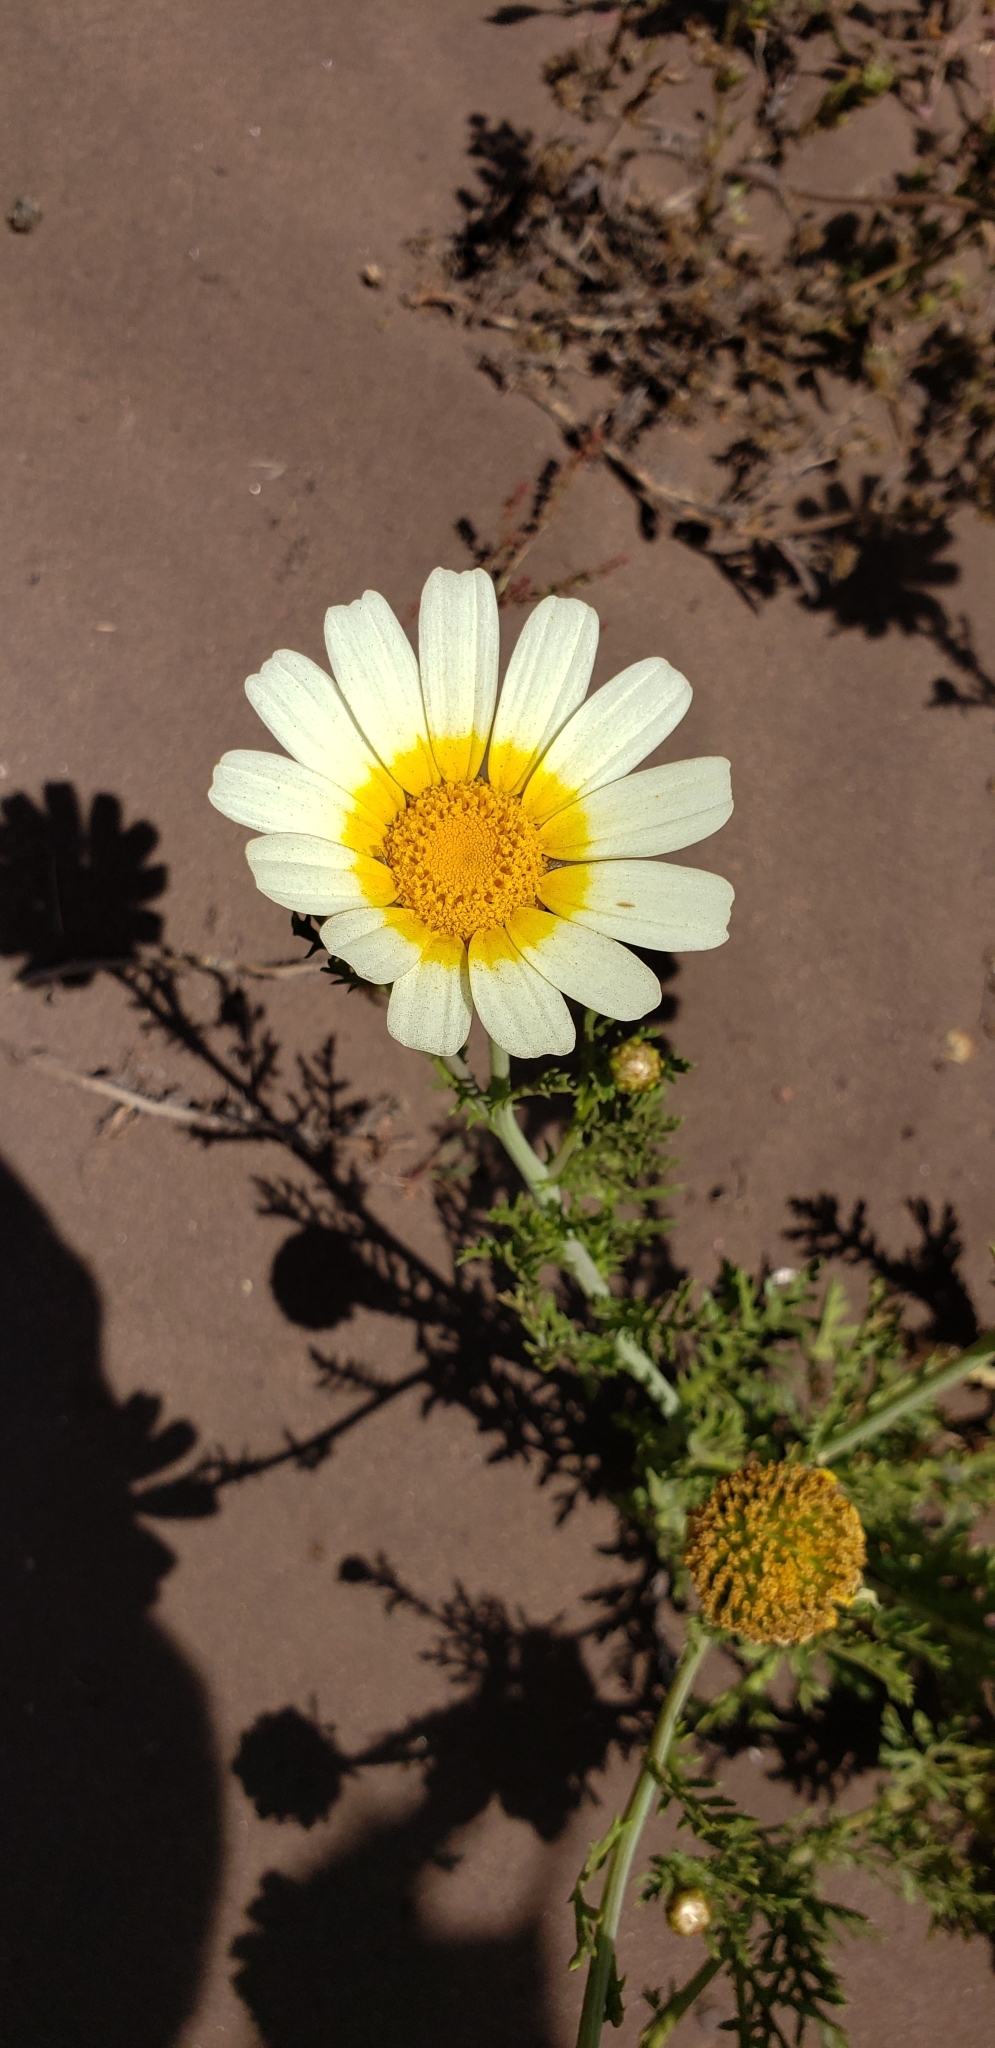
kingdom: Plantae
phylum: Tracheophyta
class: Magnoliopsida
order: Asterales
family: Asteraceae
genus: Glebionis
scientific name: Glebionis coronaria
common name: Crowndaisy
